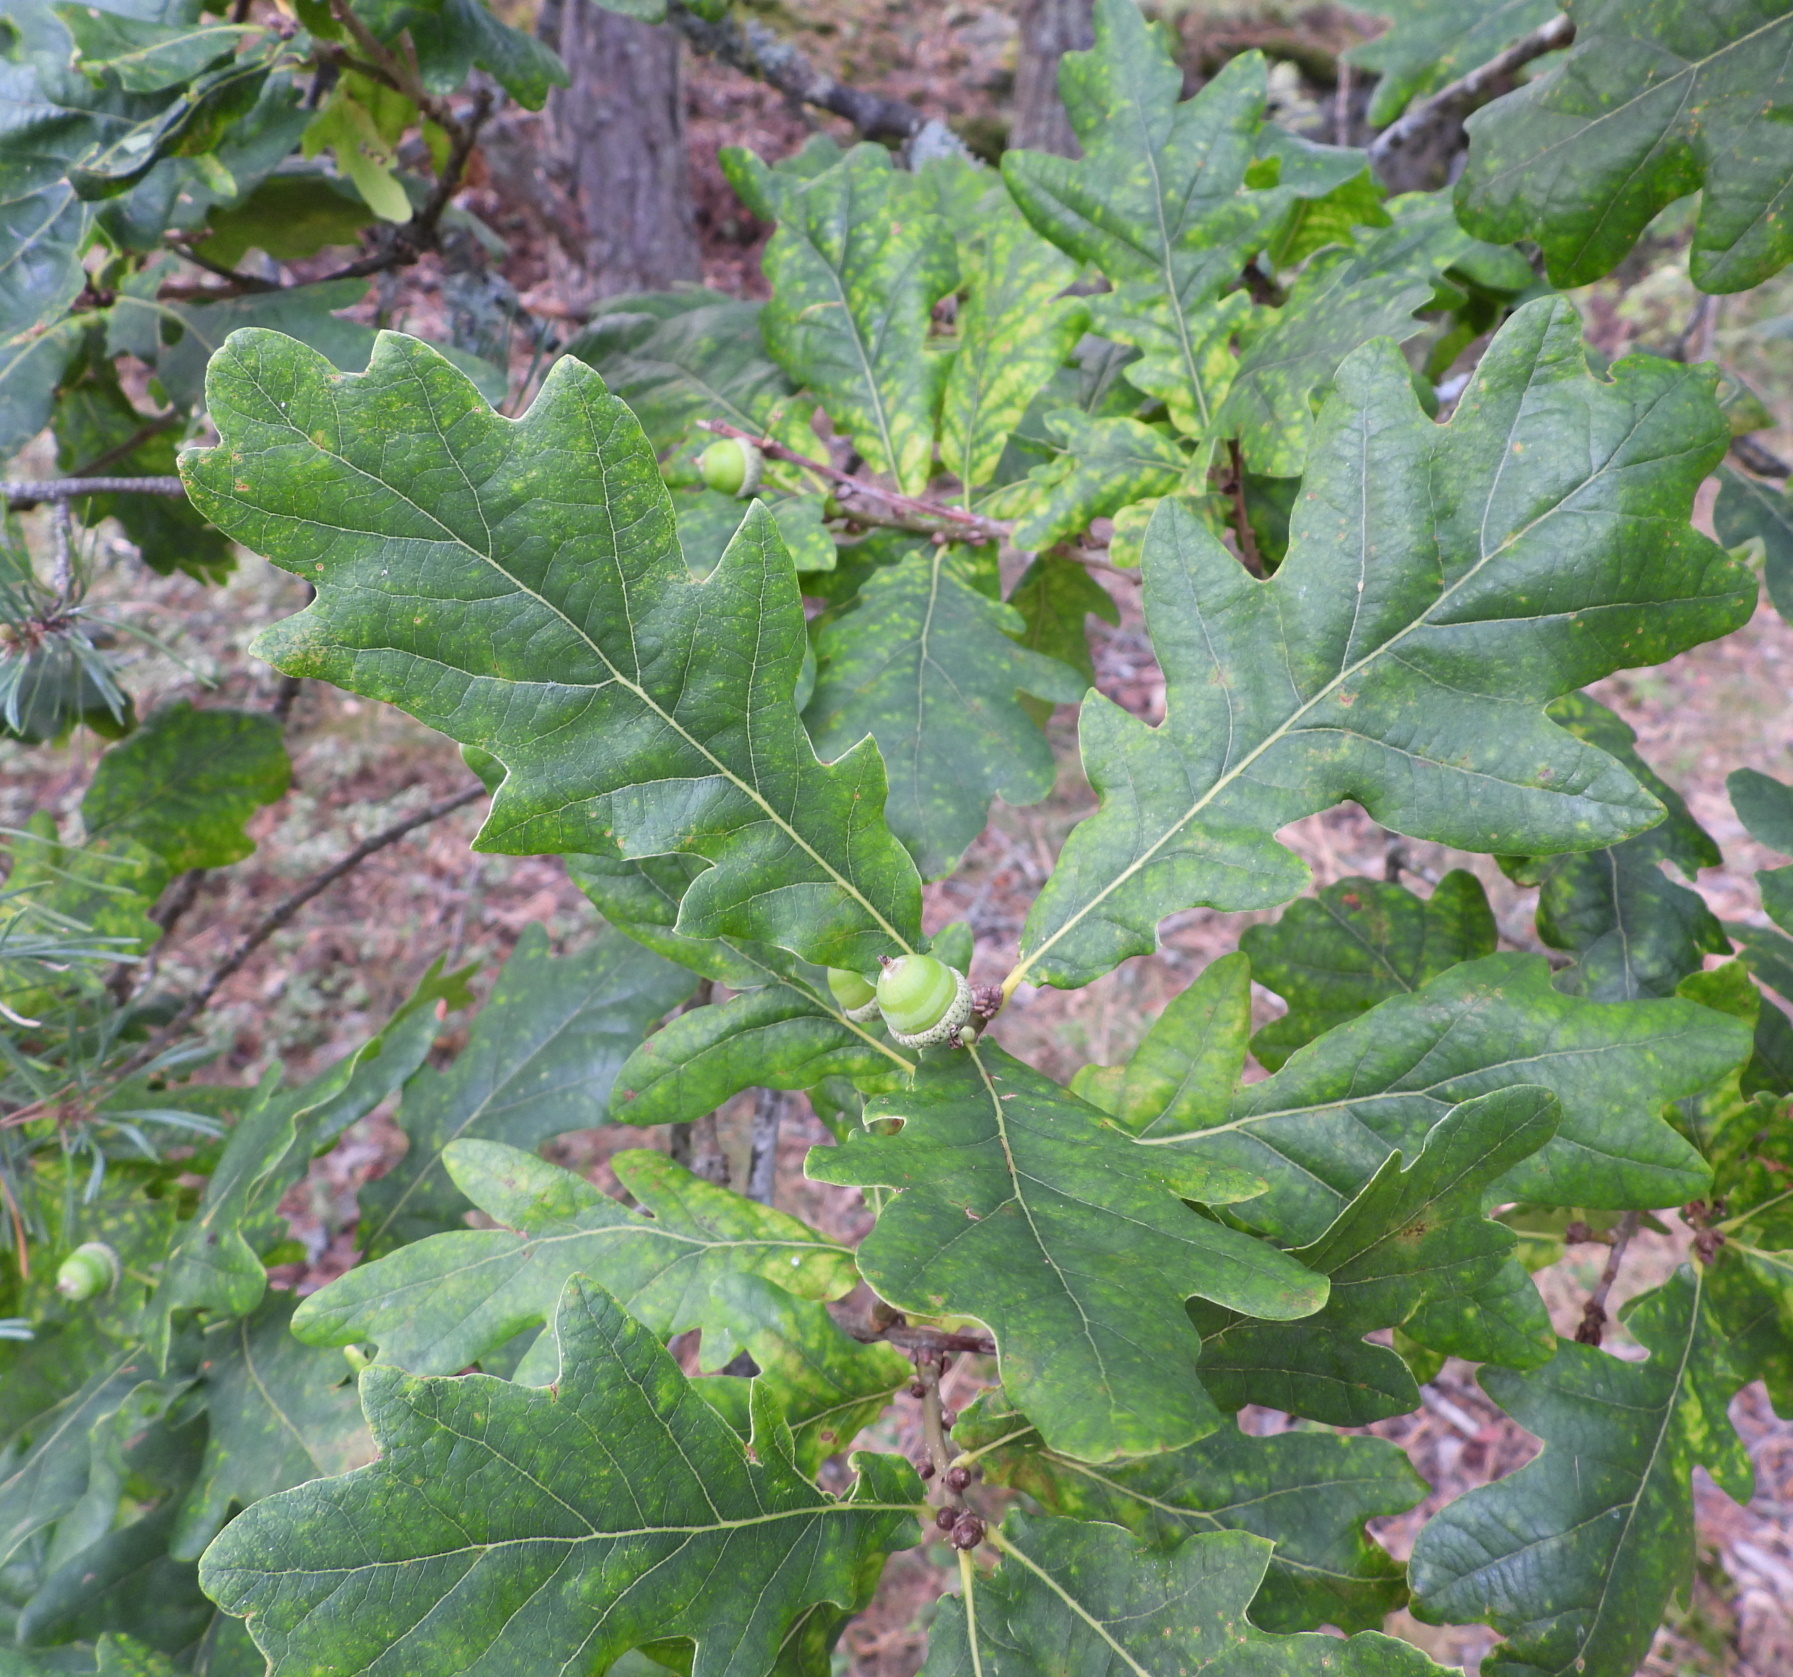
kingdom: Plantae
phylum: Tracheophyta
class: Magnoliopsida
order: Fagales
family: Fagaceae
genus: Quercus
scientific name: Quercus robur
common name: Pedunculate oak
